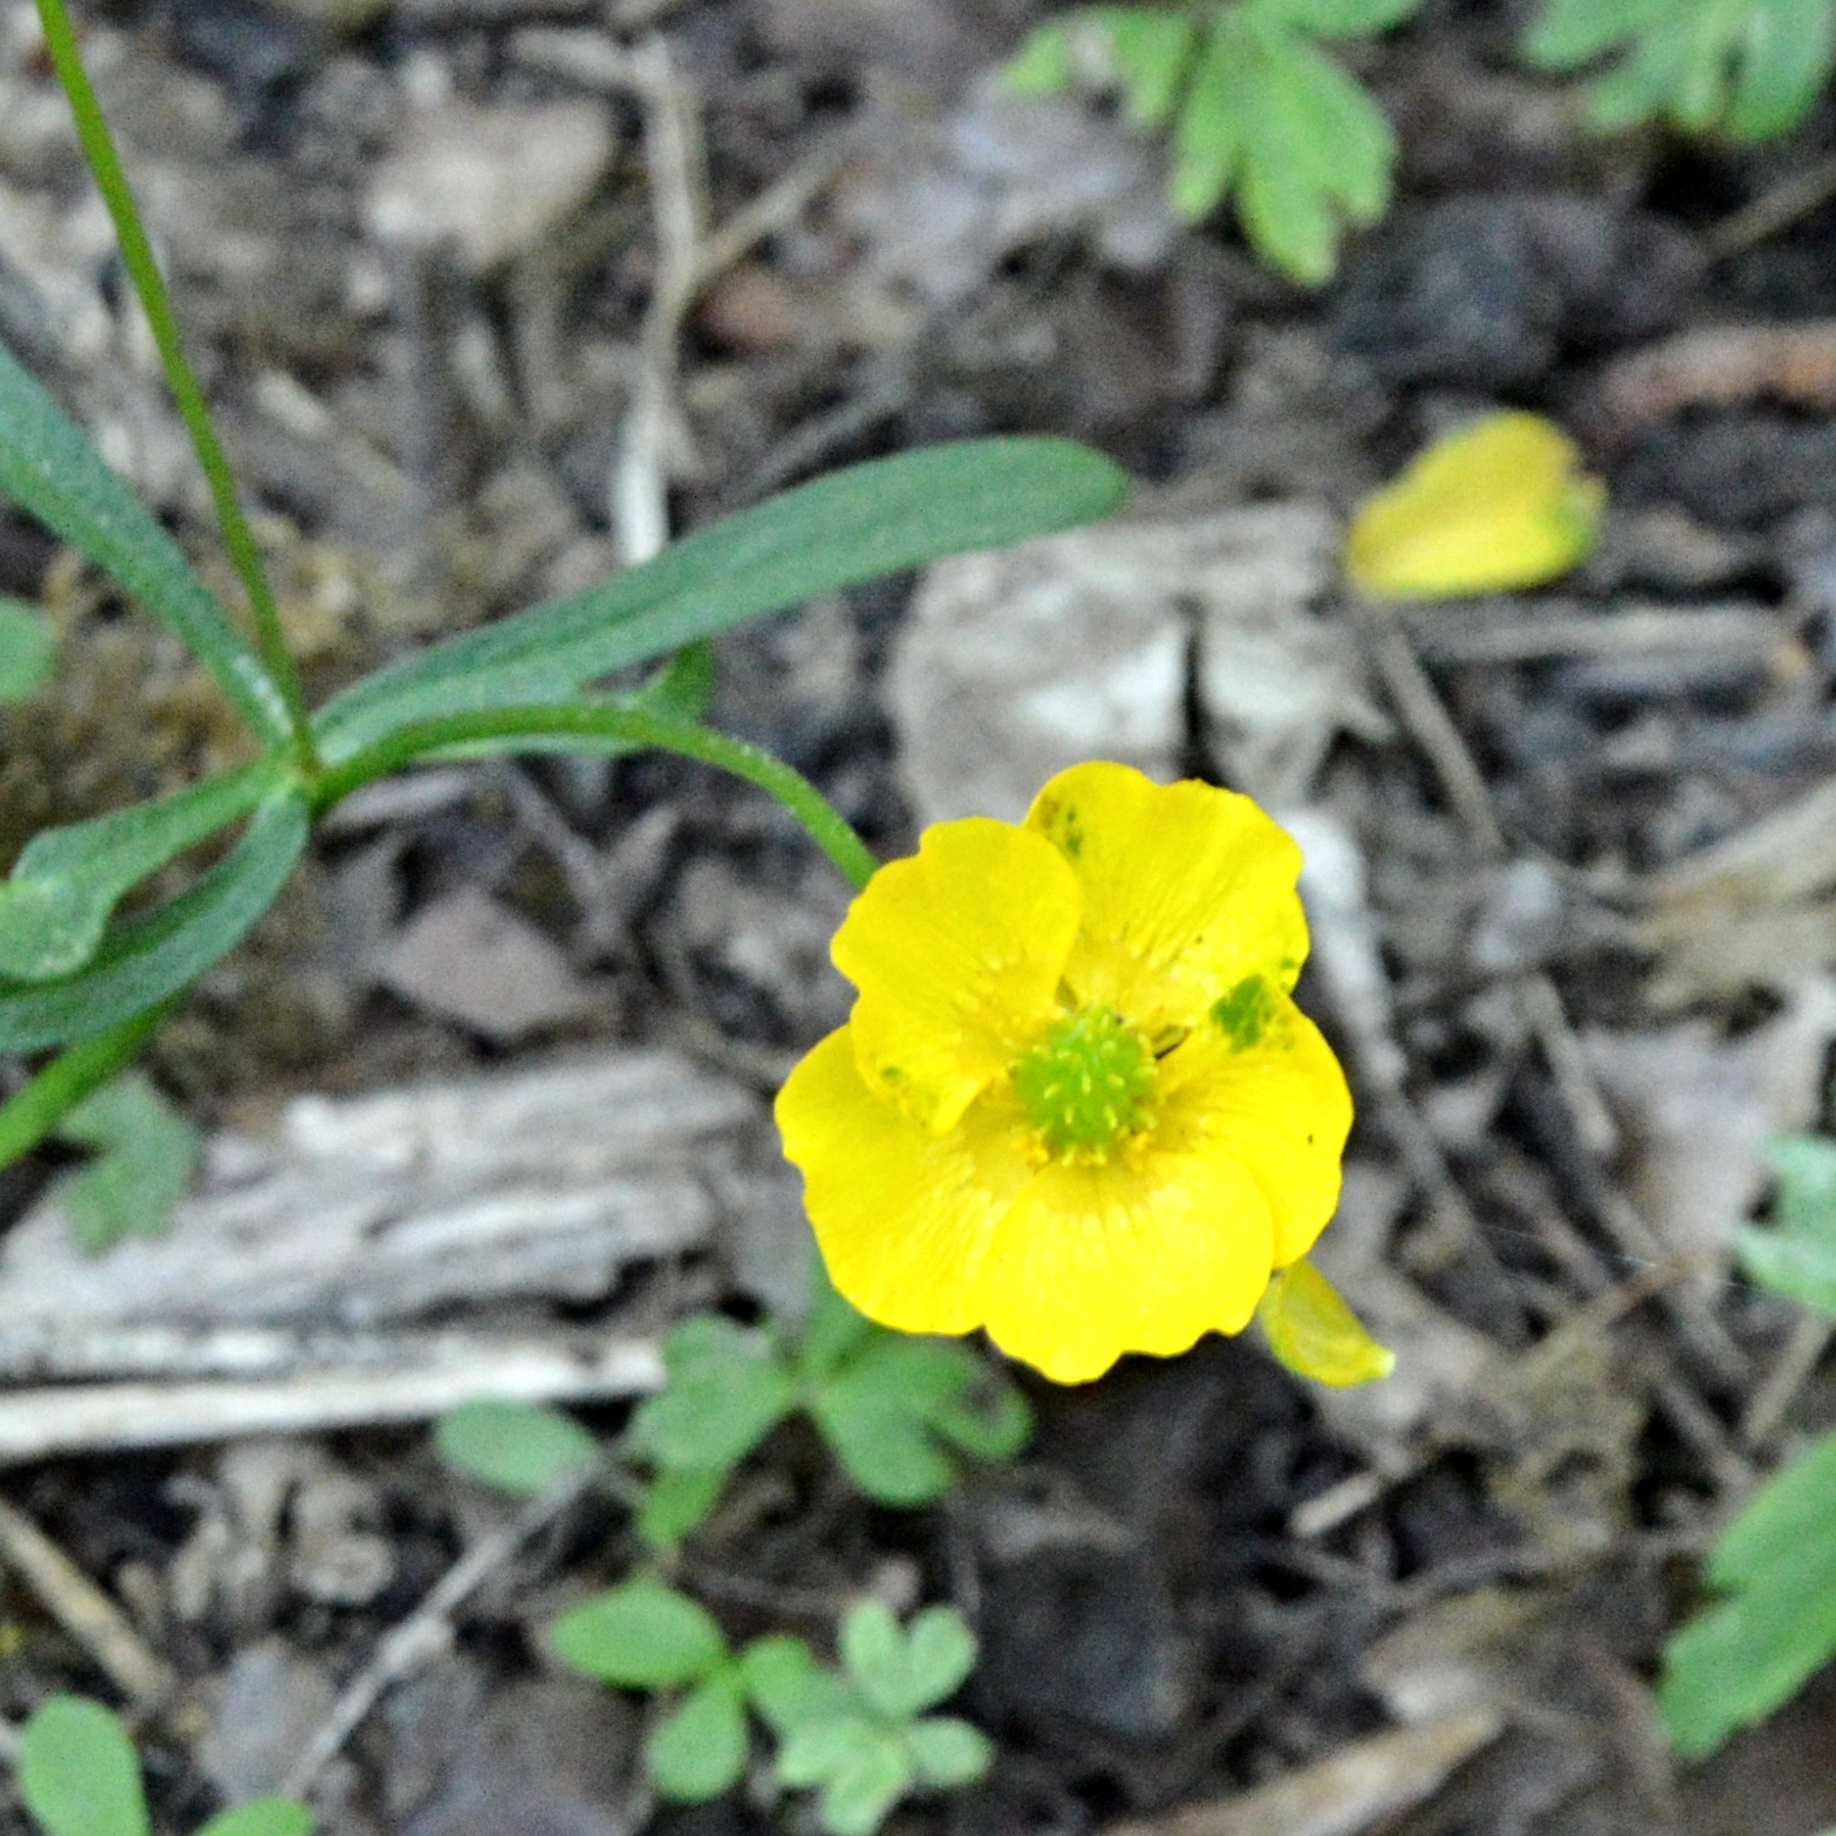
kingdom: Plantae
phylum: Tracheophyta
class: Magnoliopsida
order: Ranunculales
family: Ranunculaceae
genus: Ranunculus
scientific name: Ranunculus auricomus
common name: Goldilocks buttercup
